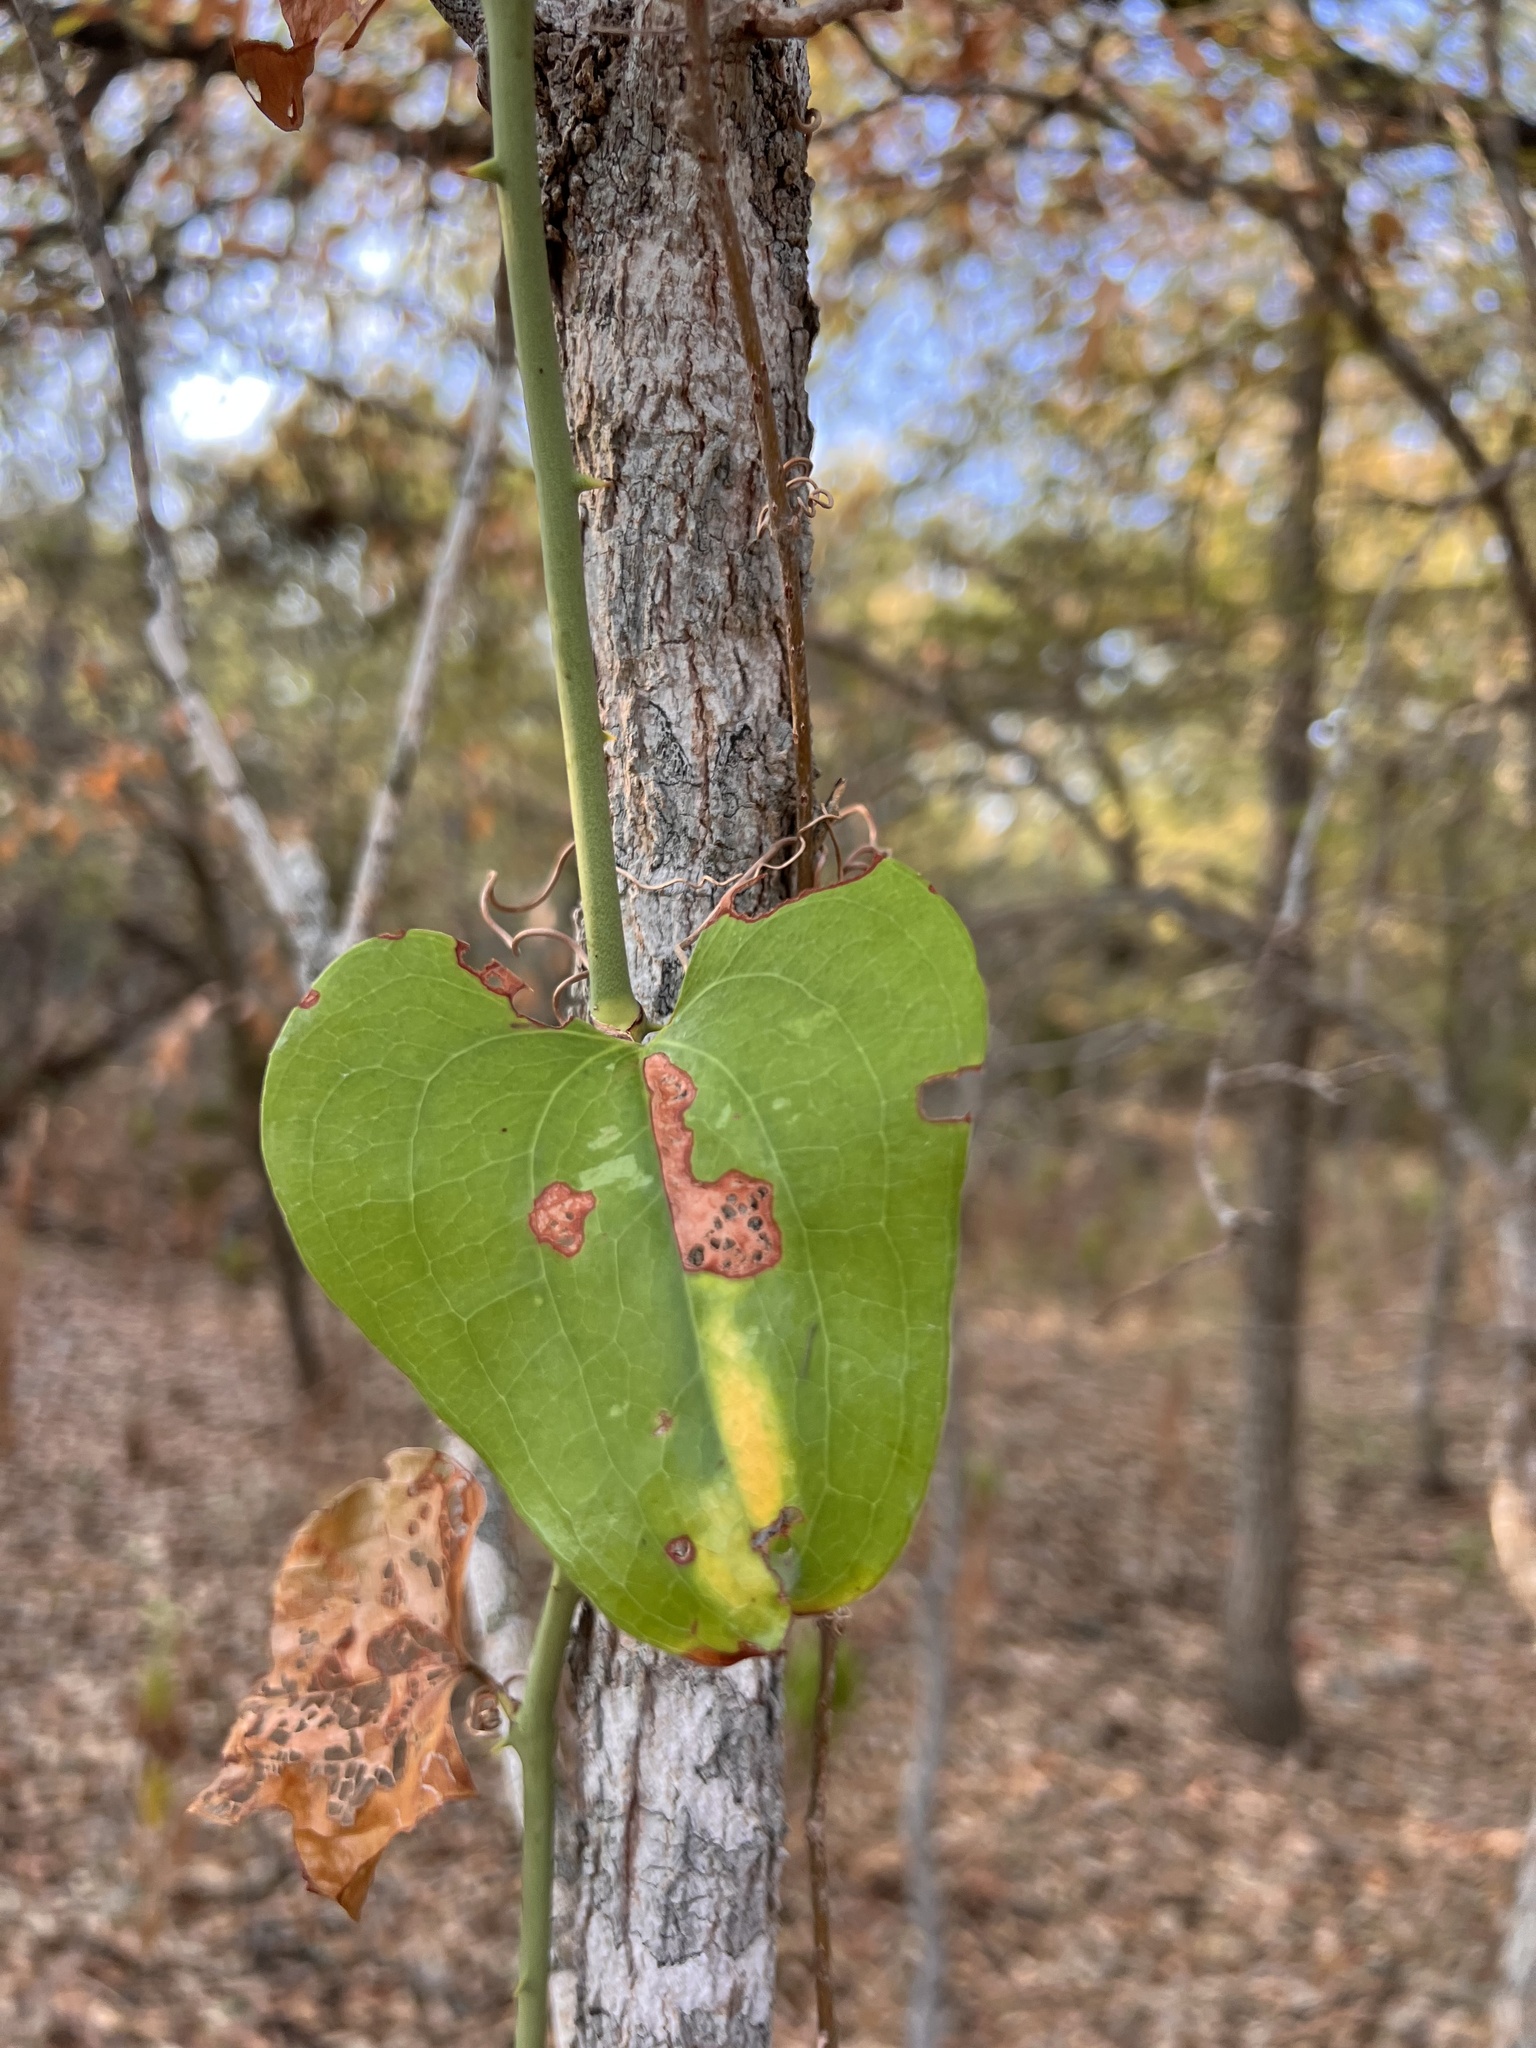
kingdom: Plantae
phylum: Tracheophyta
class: Liliopsida
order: Liliales
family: Smilacaceae
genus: Smilax
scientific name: Smilax bona-nox
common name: Catbrier
